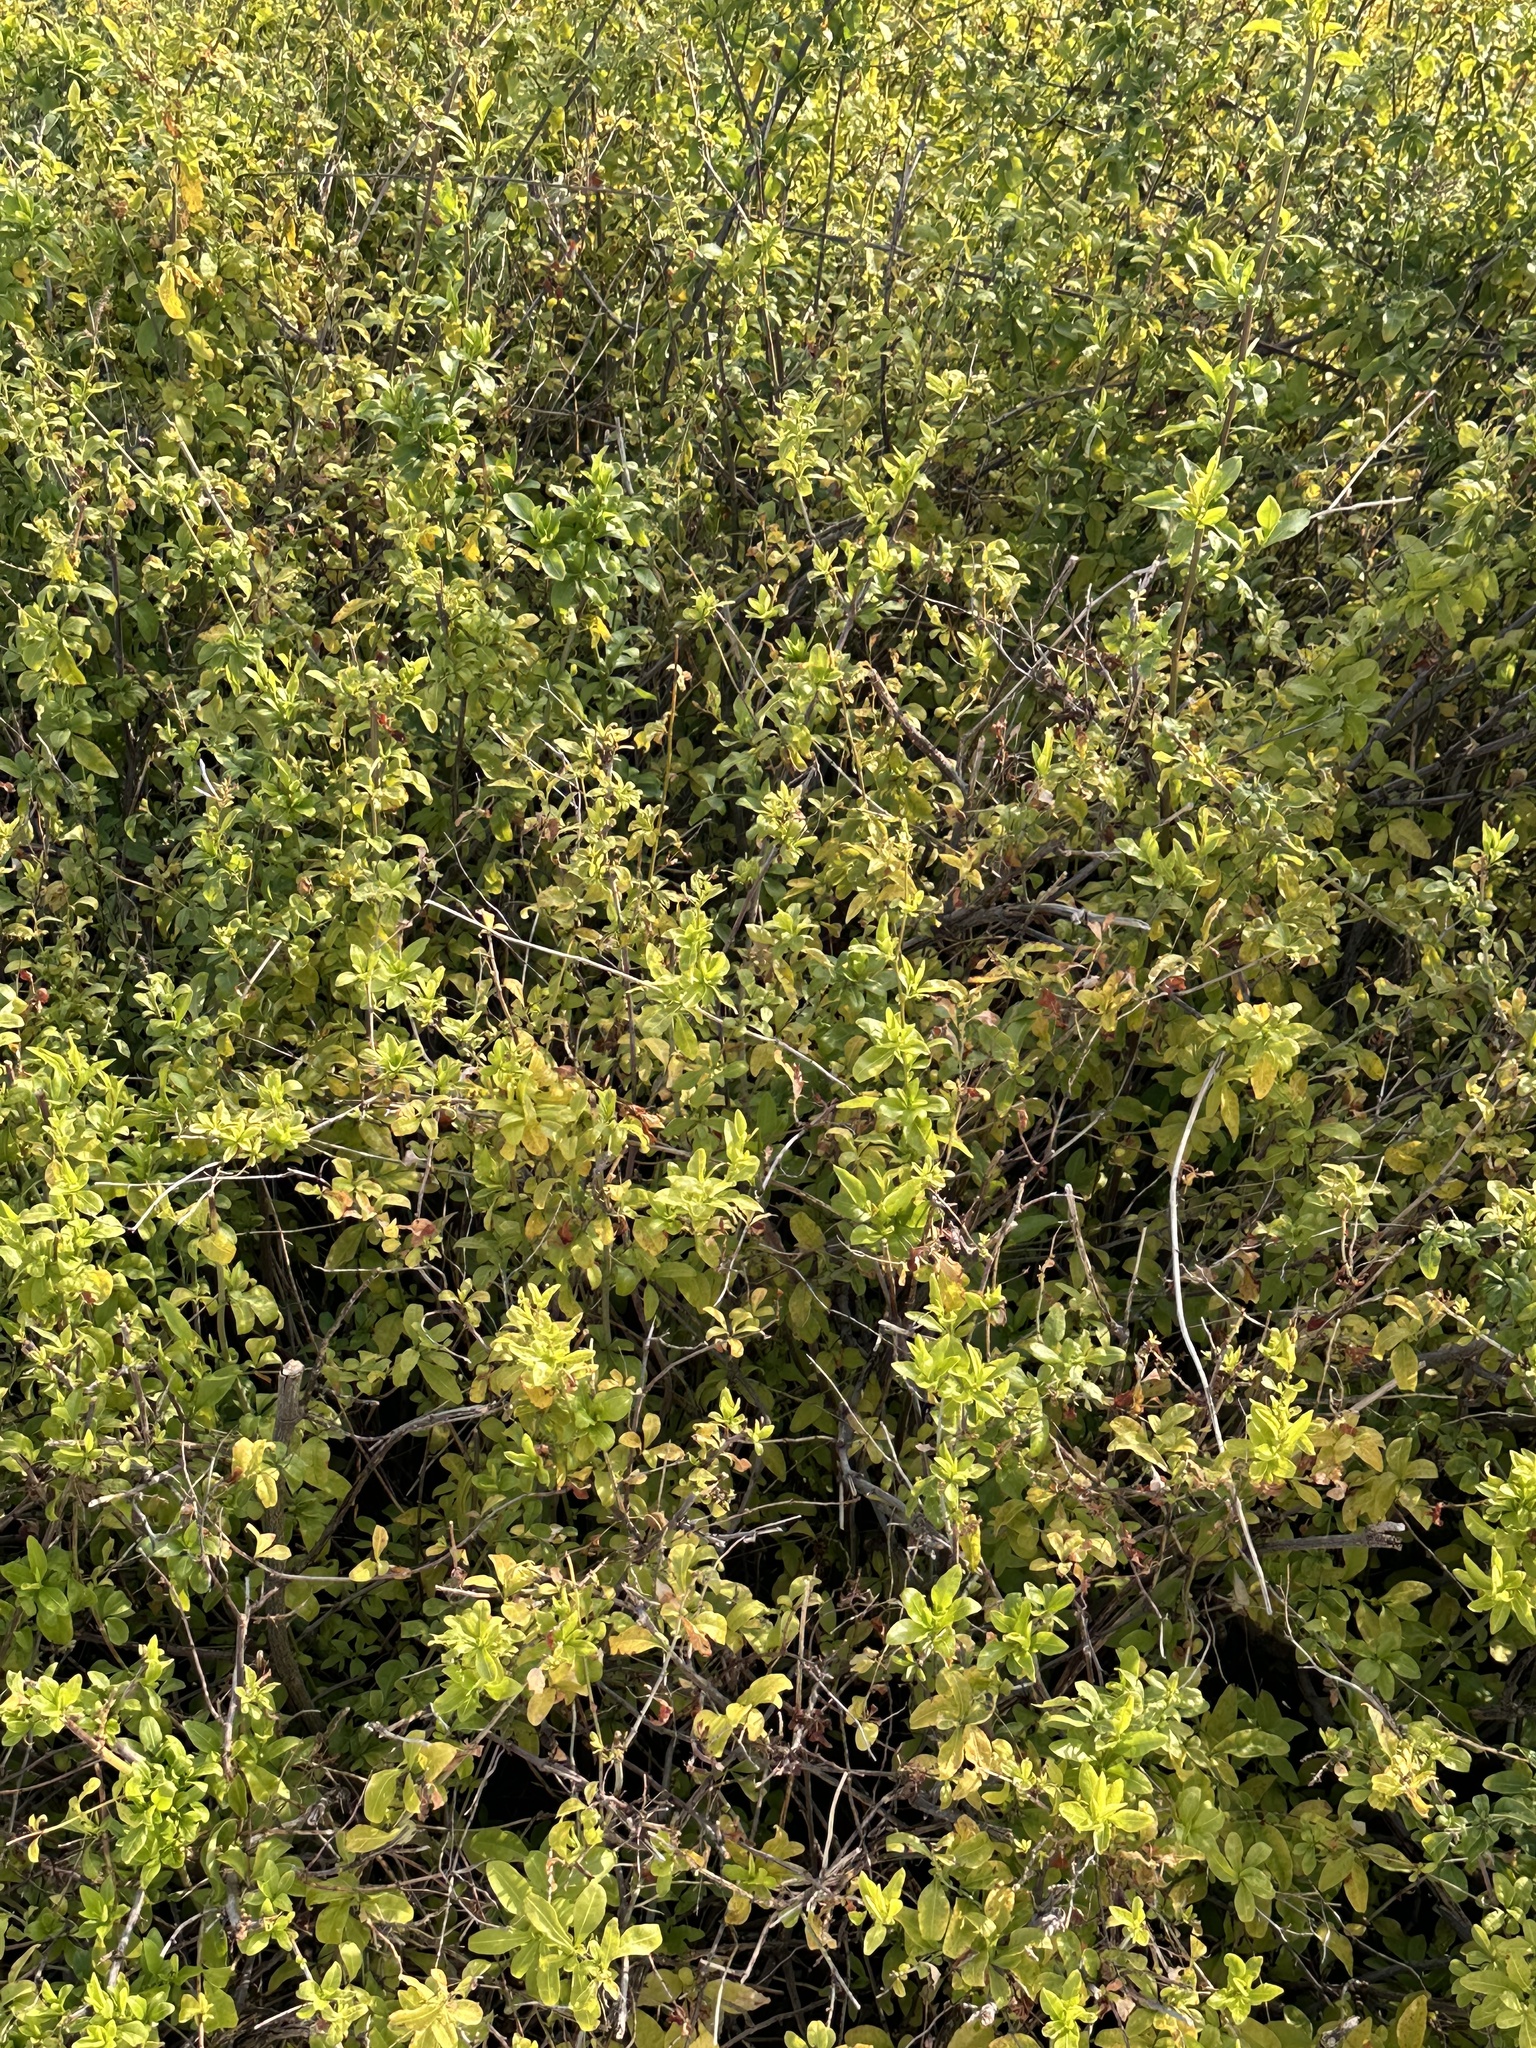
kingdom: Plantae
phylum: Tracheophyta
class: Magnoliopsida
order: Fagales
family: Fagaceae
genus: Quercus
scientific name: Quercus agrifolia
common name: California live oak
